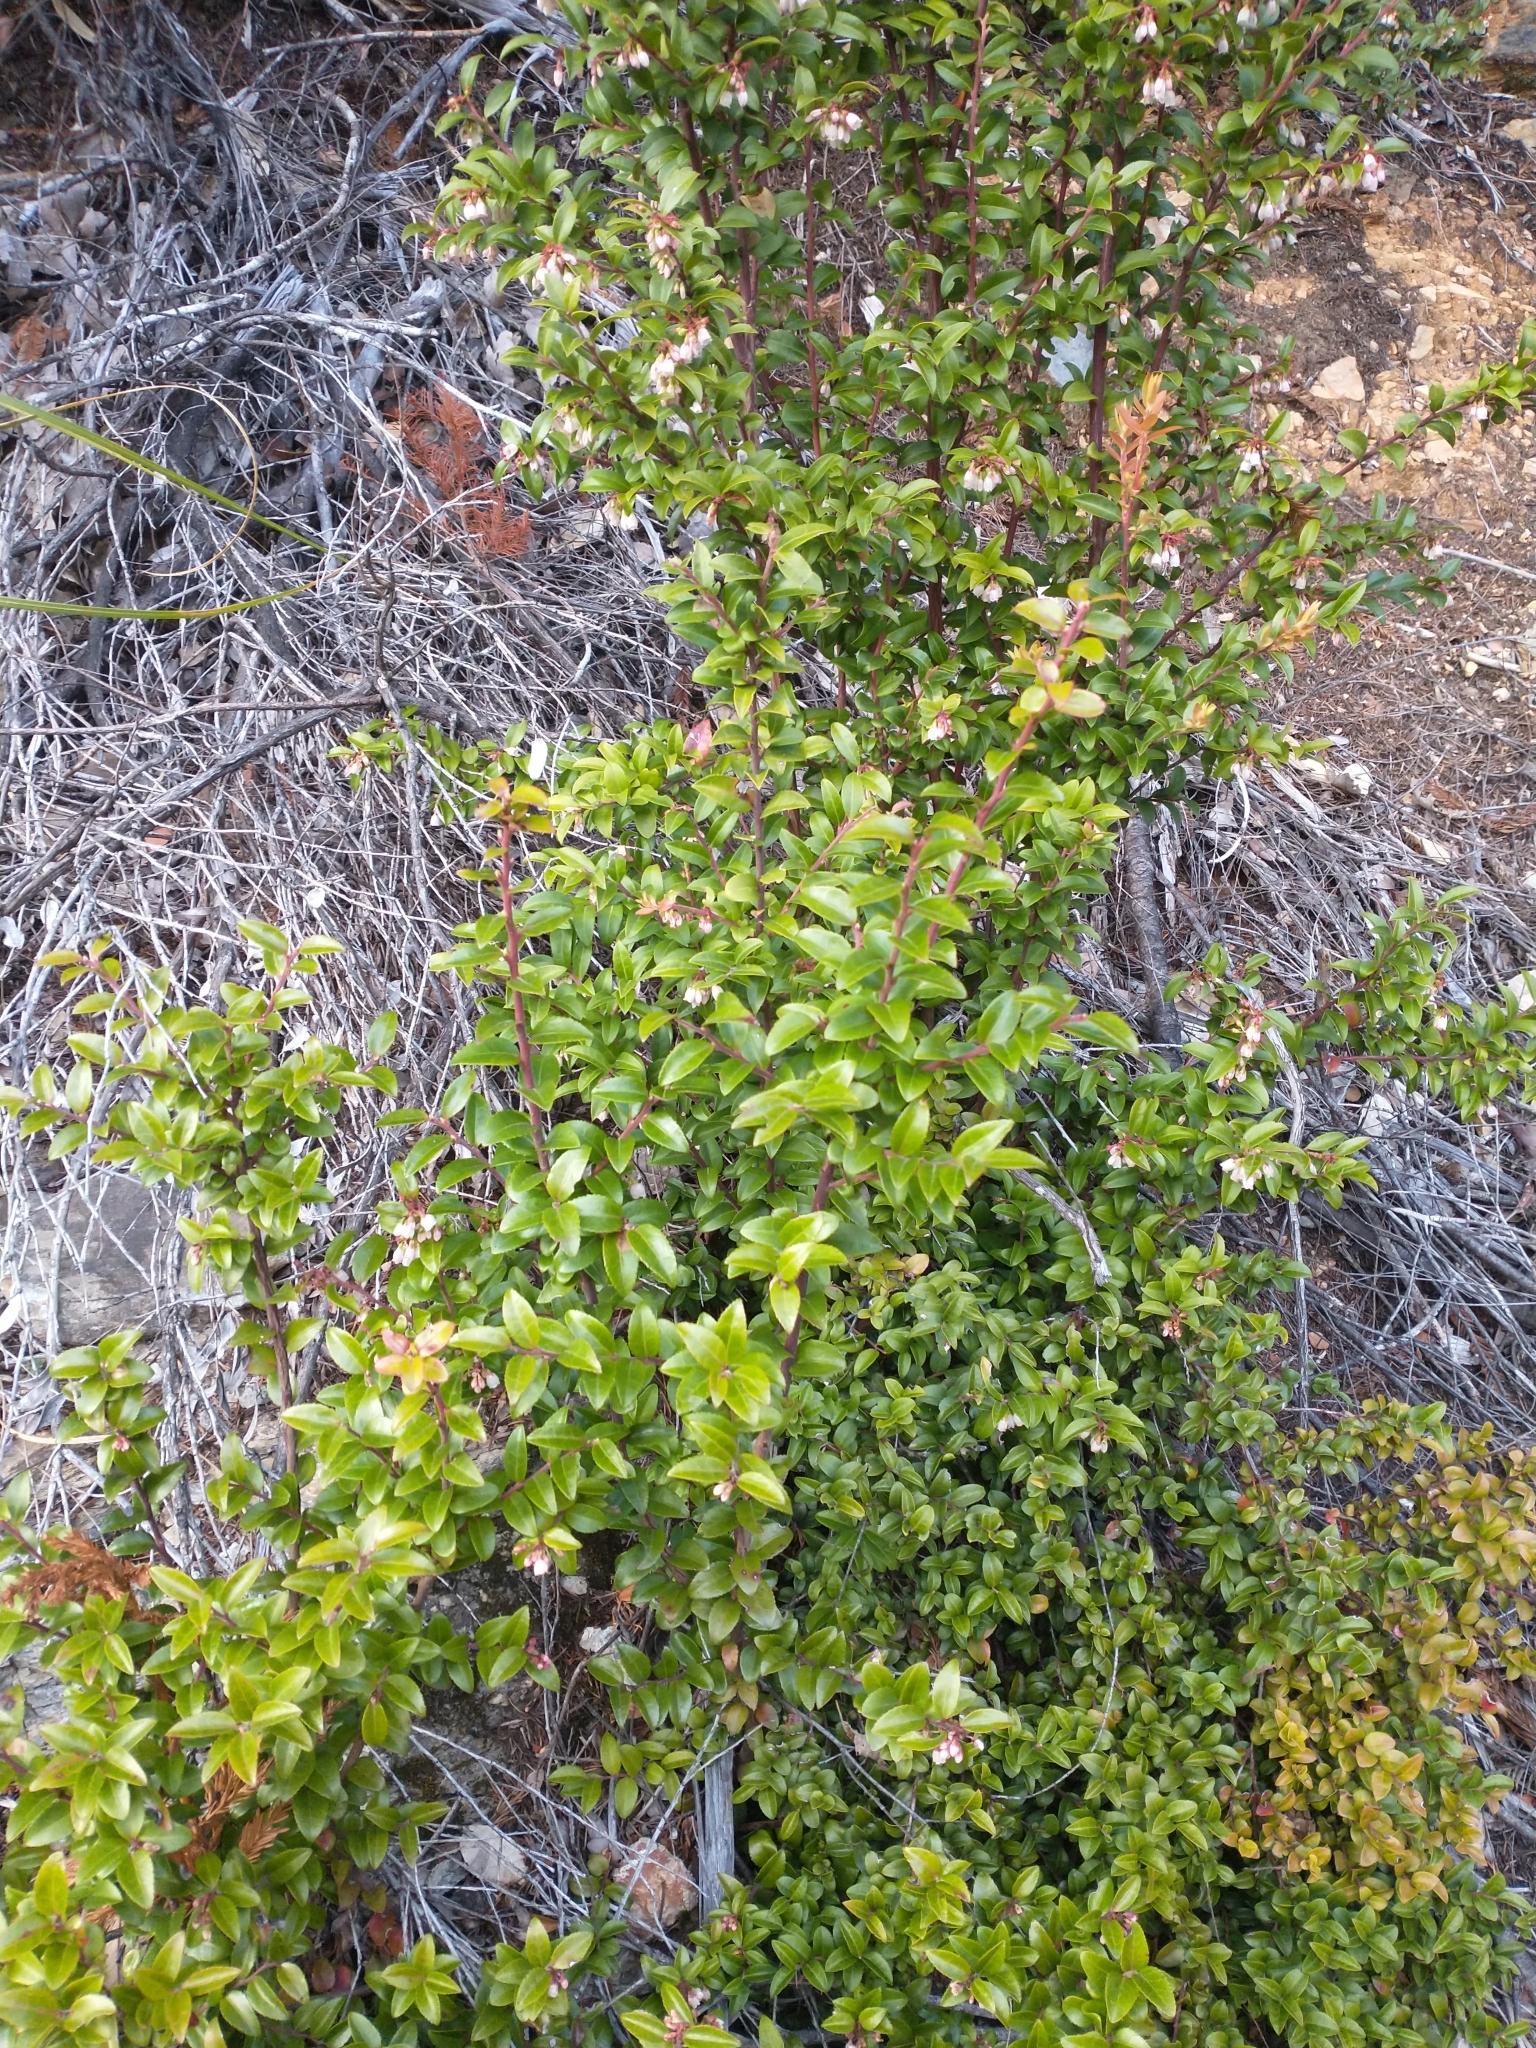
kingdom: Plantae
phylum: Tracheophyta
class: Magnoliopsida
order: Ericales
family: Ericaceae
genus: Vaccinium
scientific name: Vaccinium ovatum
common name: California-huckleberry
